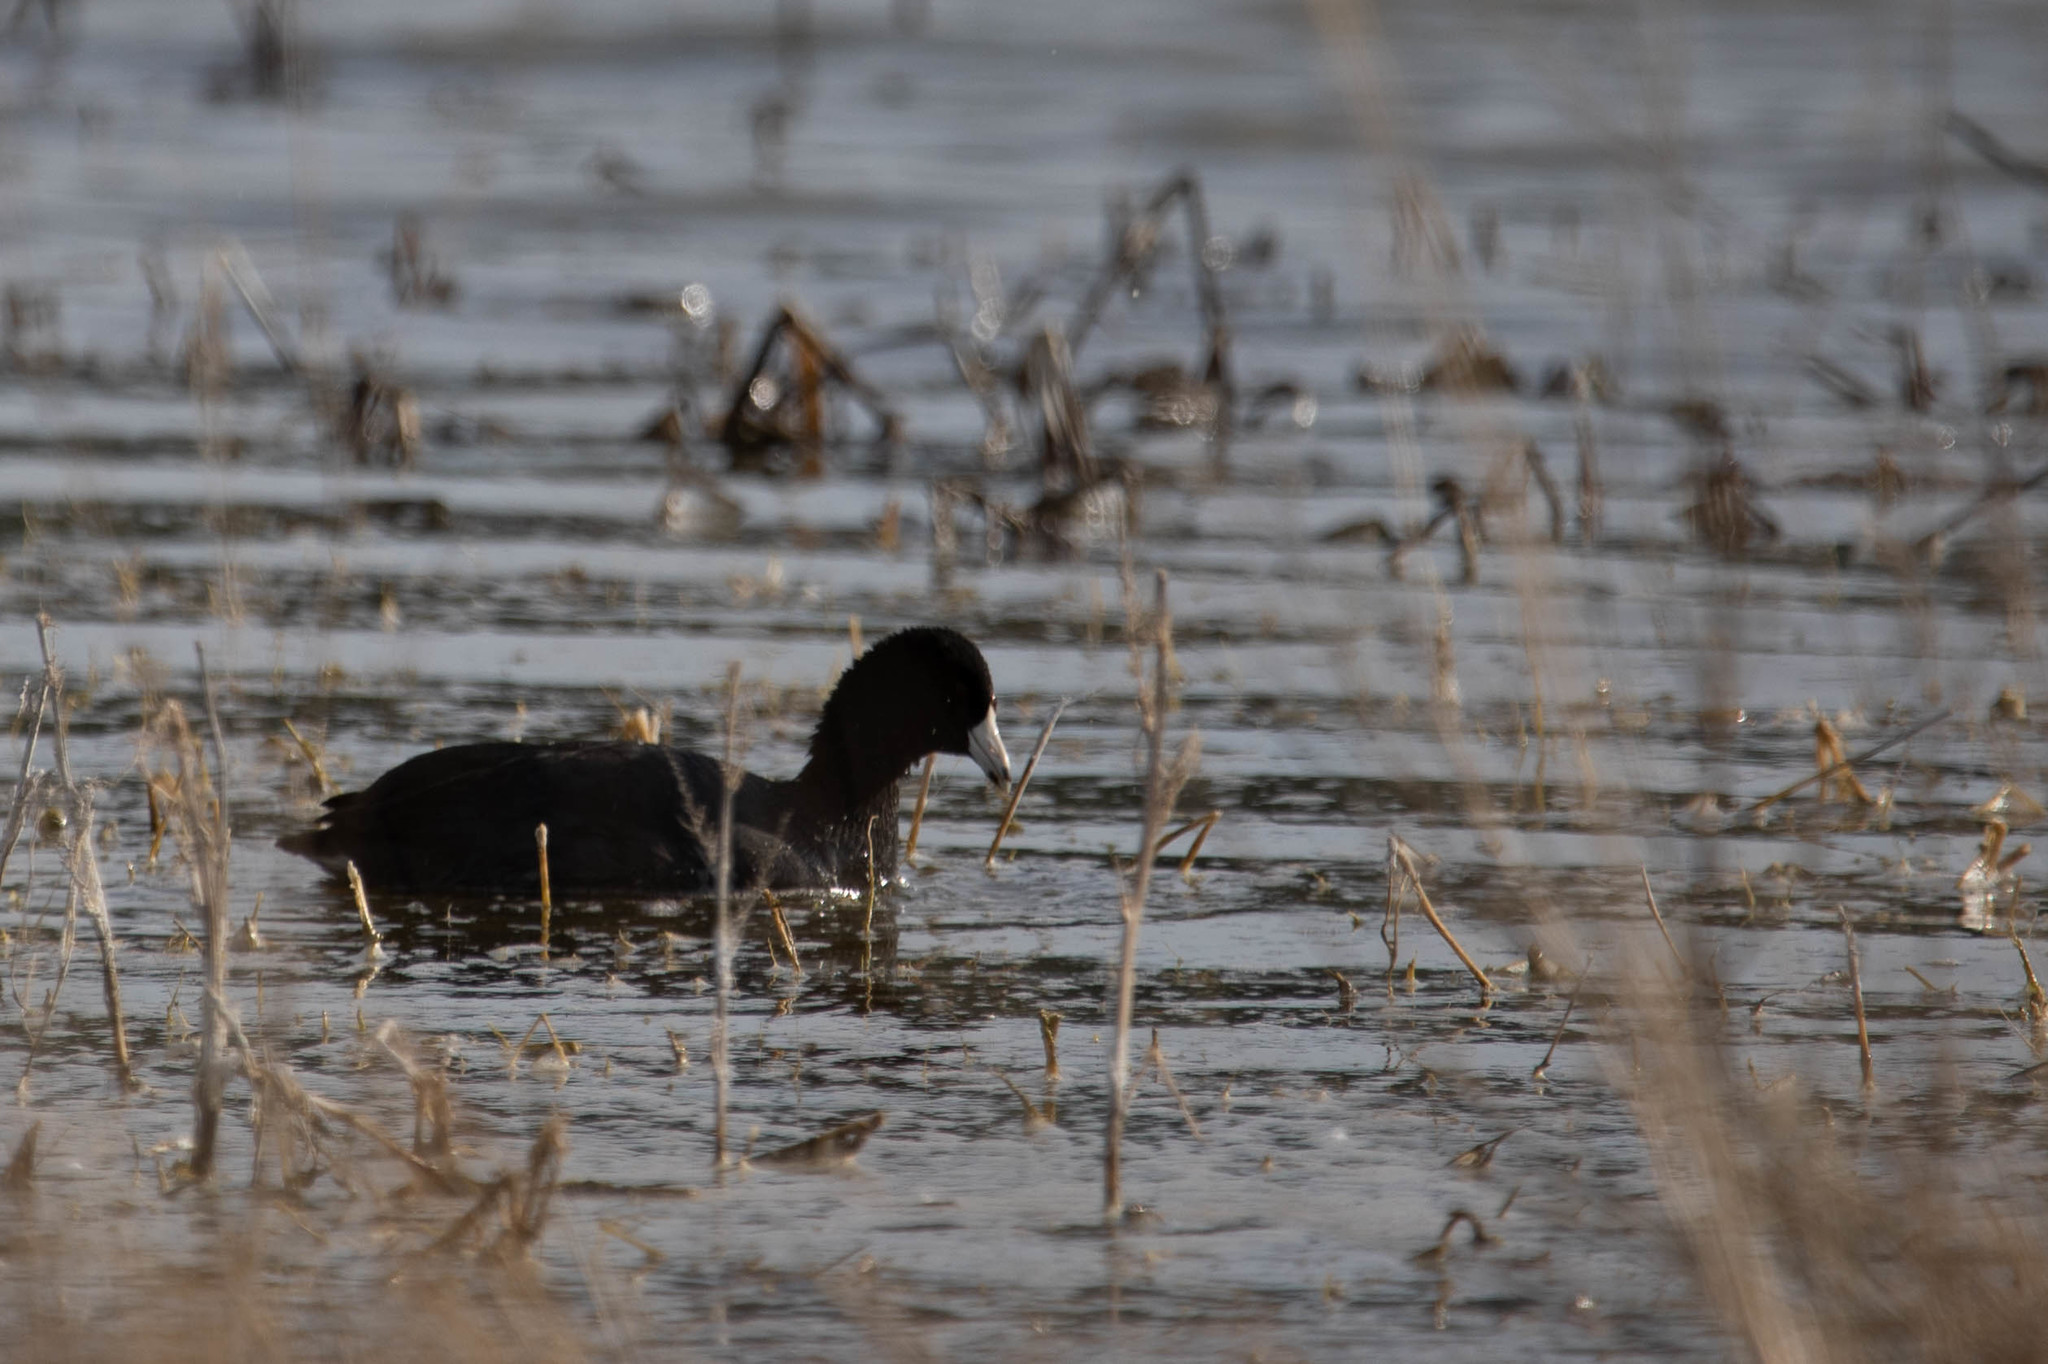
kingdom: Animalia
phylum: Chordata
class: Aves
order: Gruiformes
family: Rallidae
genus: Fulica
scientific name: Fulica americana
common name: American coot
